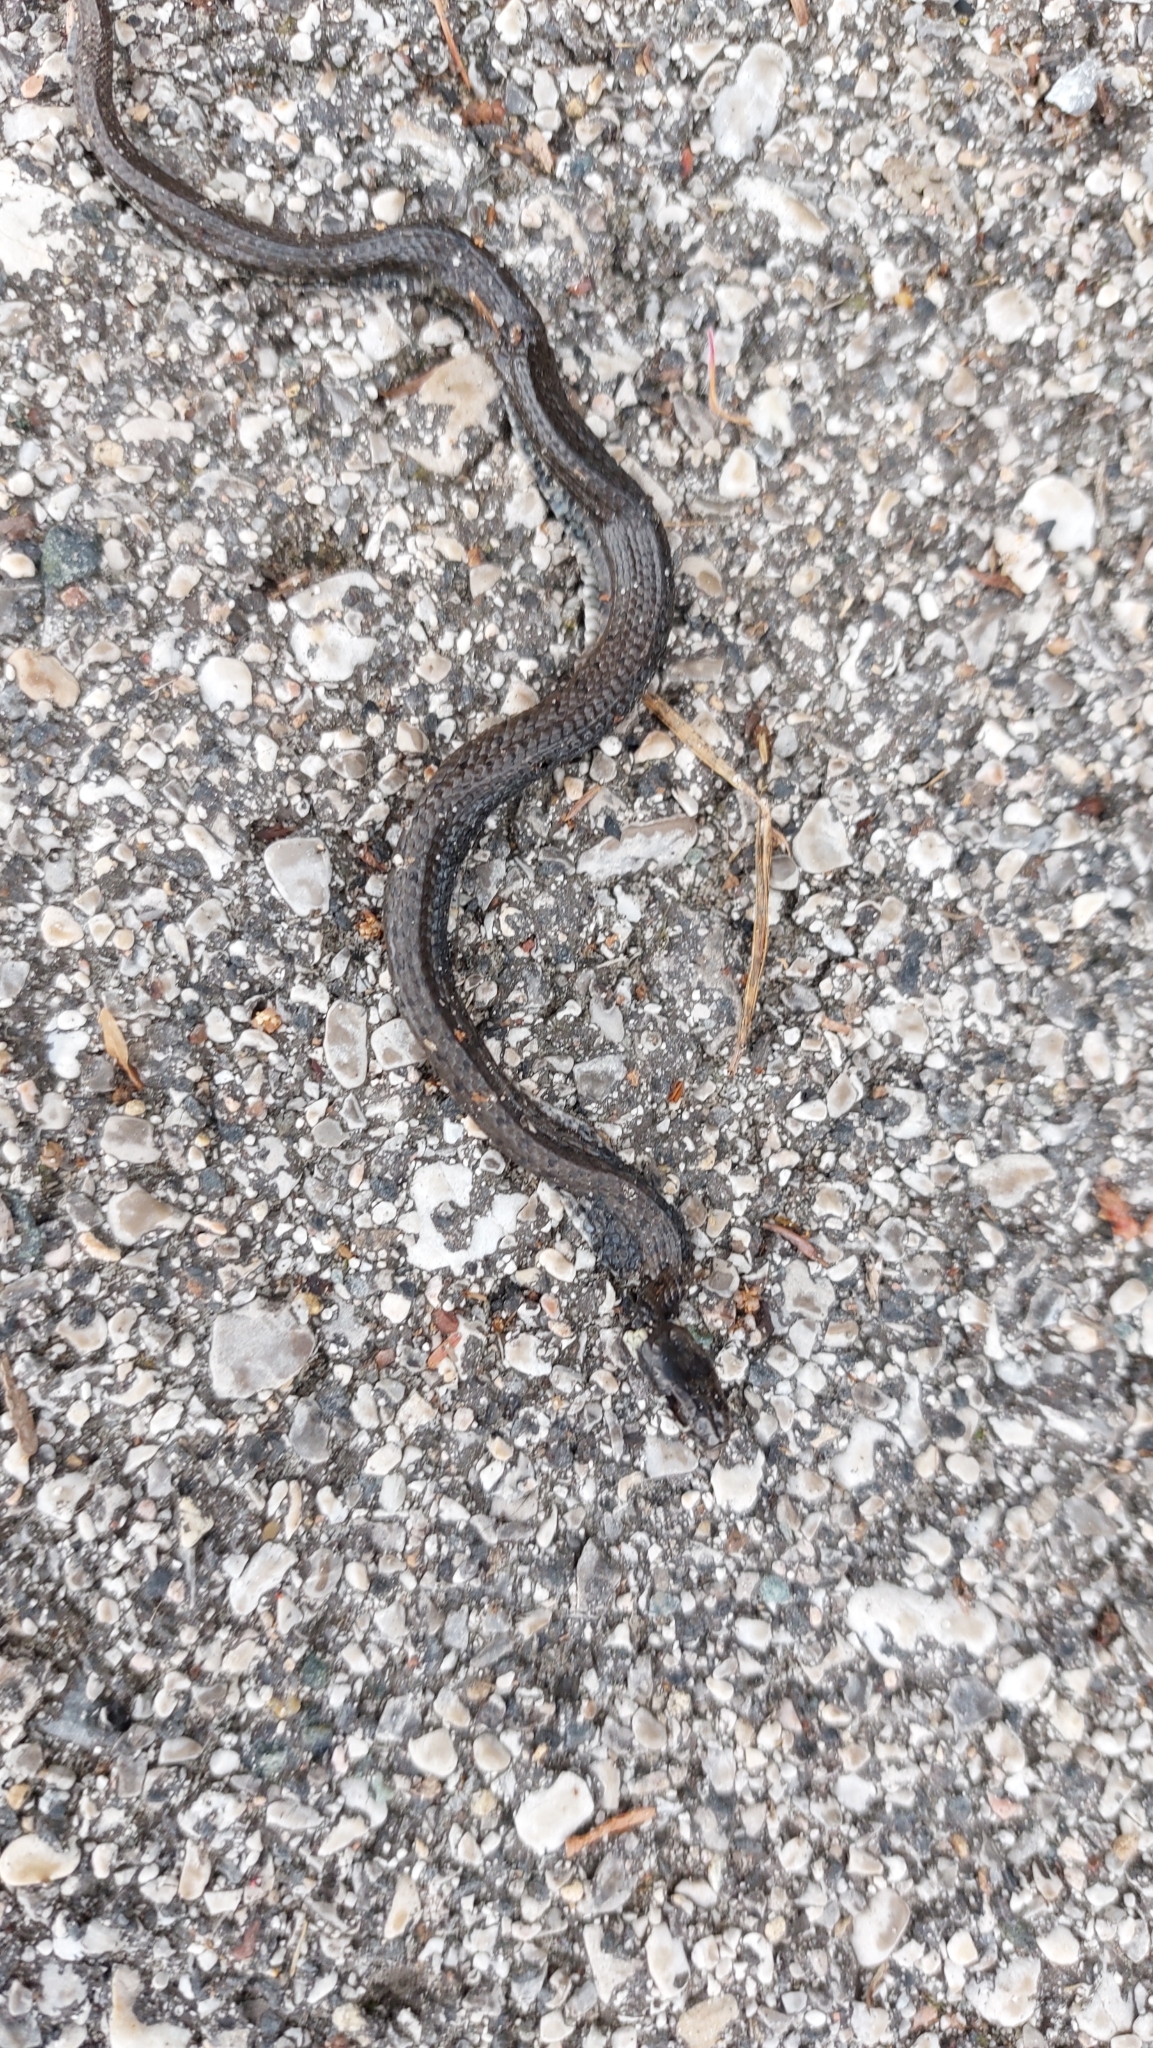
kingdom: Animalia
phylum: Chordata
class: Squamata
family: Colubridae
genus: Natrix
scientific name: Natrix natrix
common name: Grass snake
